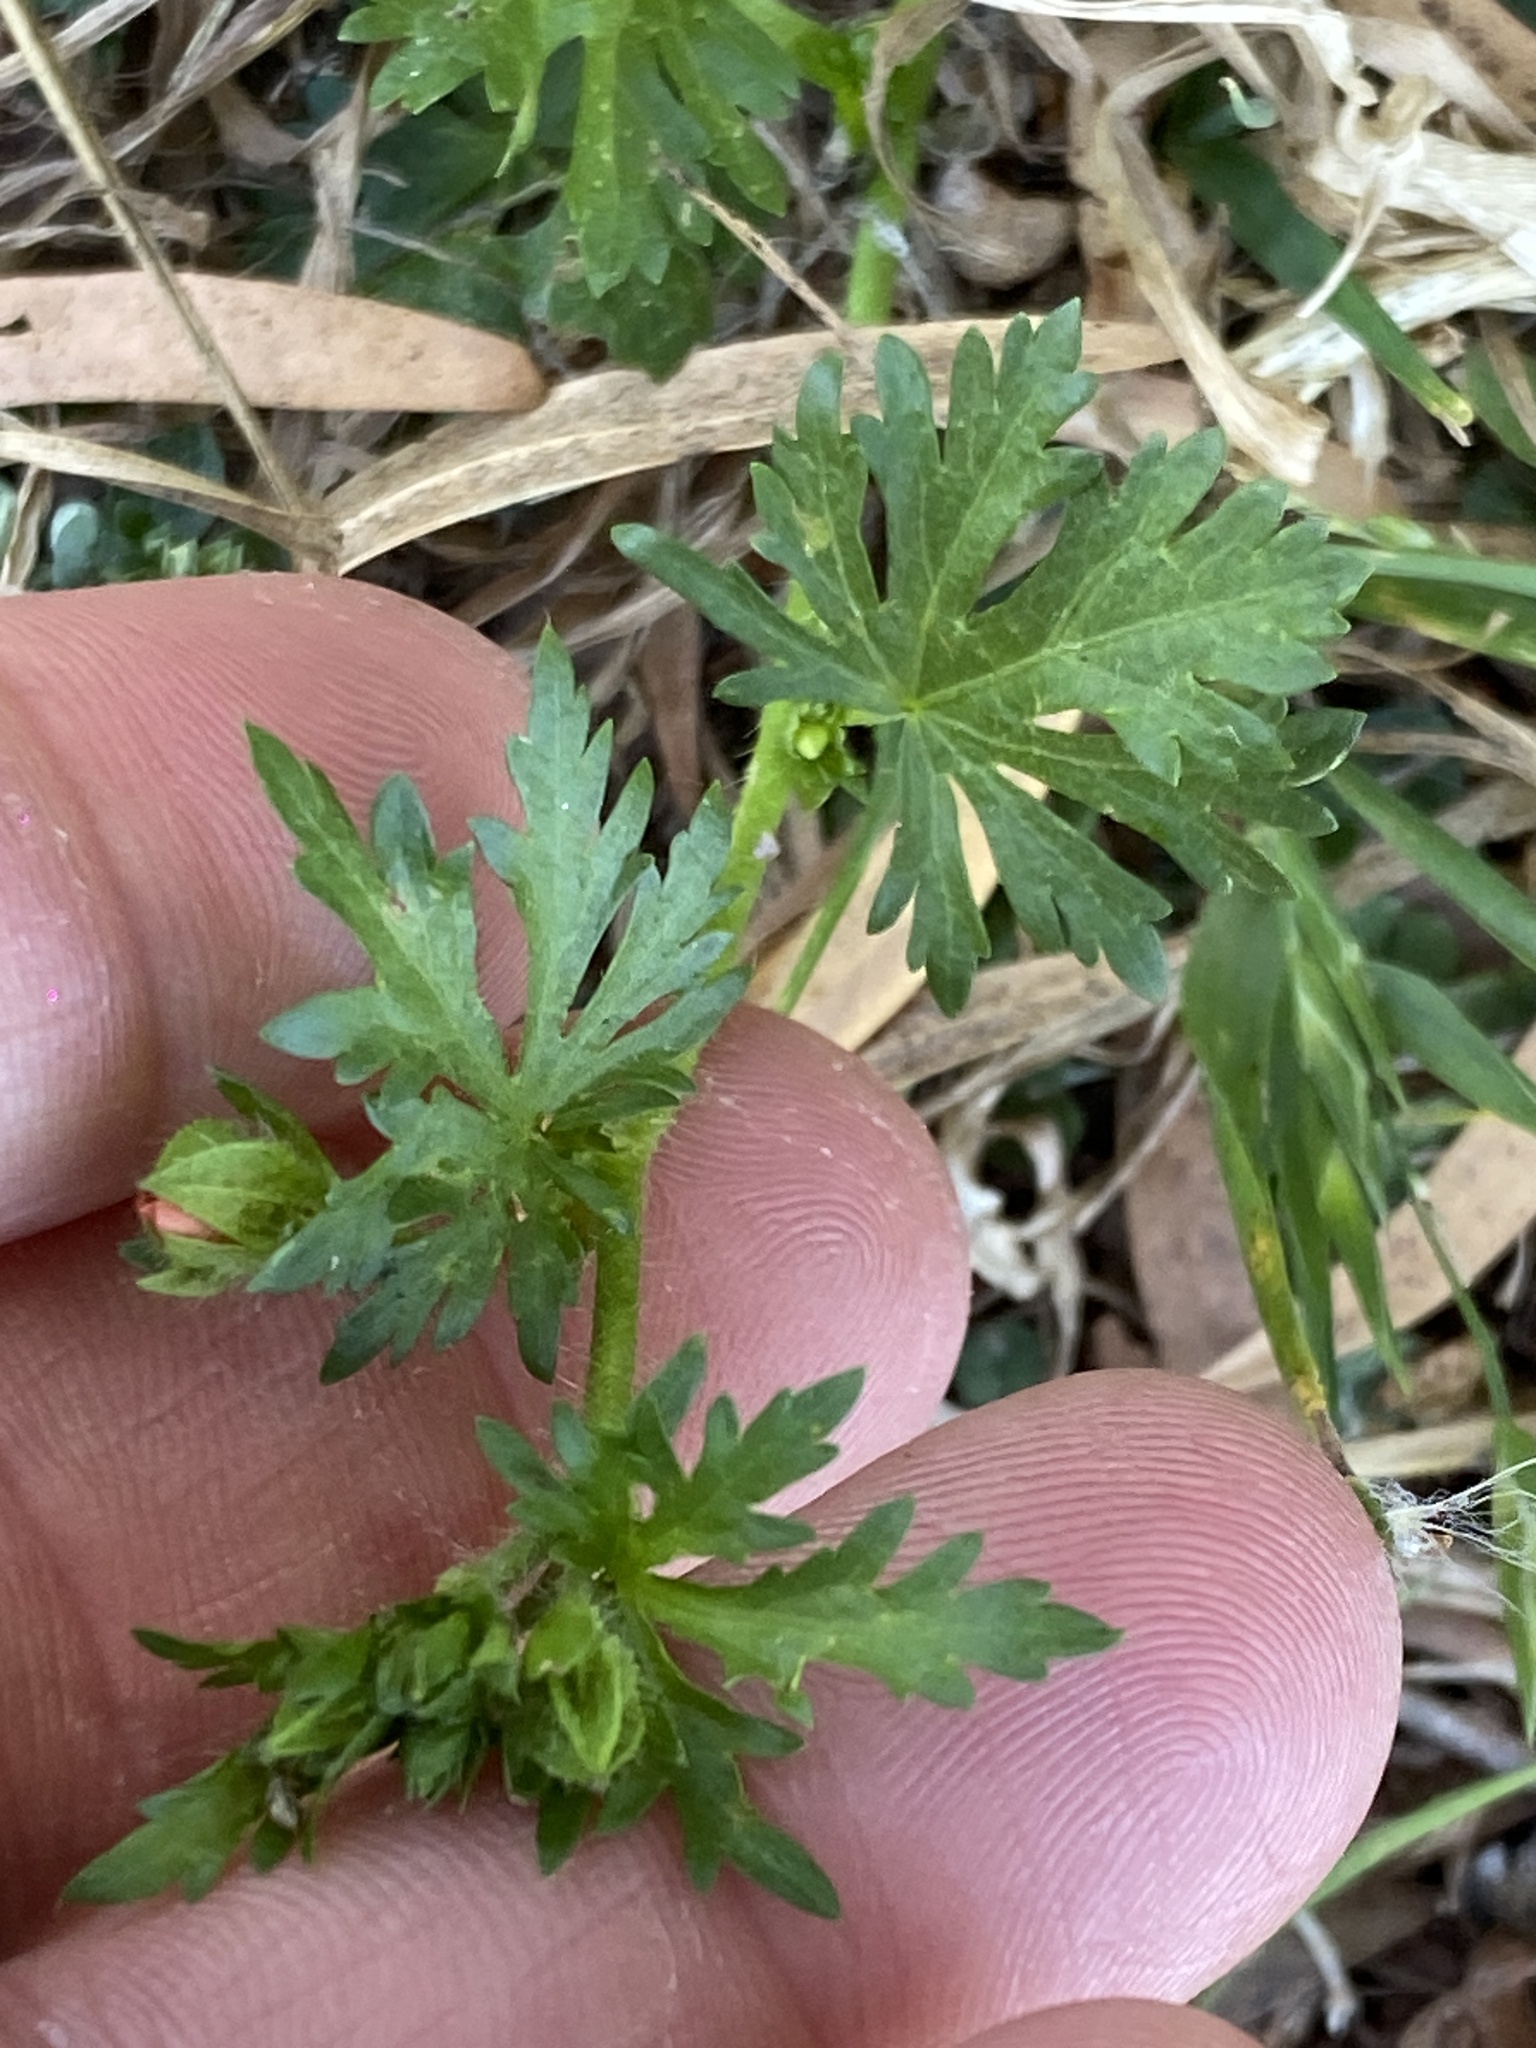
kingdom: Plantae
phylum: Tracheophyta
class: Magnoliopsida
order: Malvales
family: Malvaceae
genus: Modiola
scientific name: Modiola caroliniana
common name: Carolina bristlemallow
